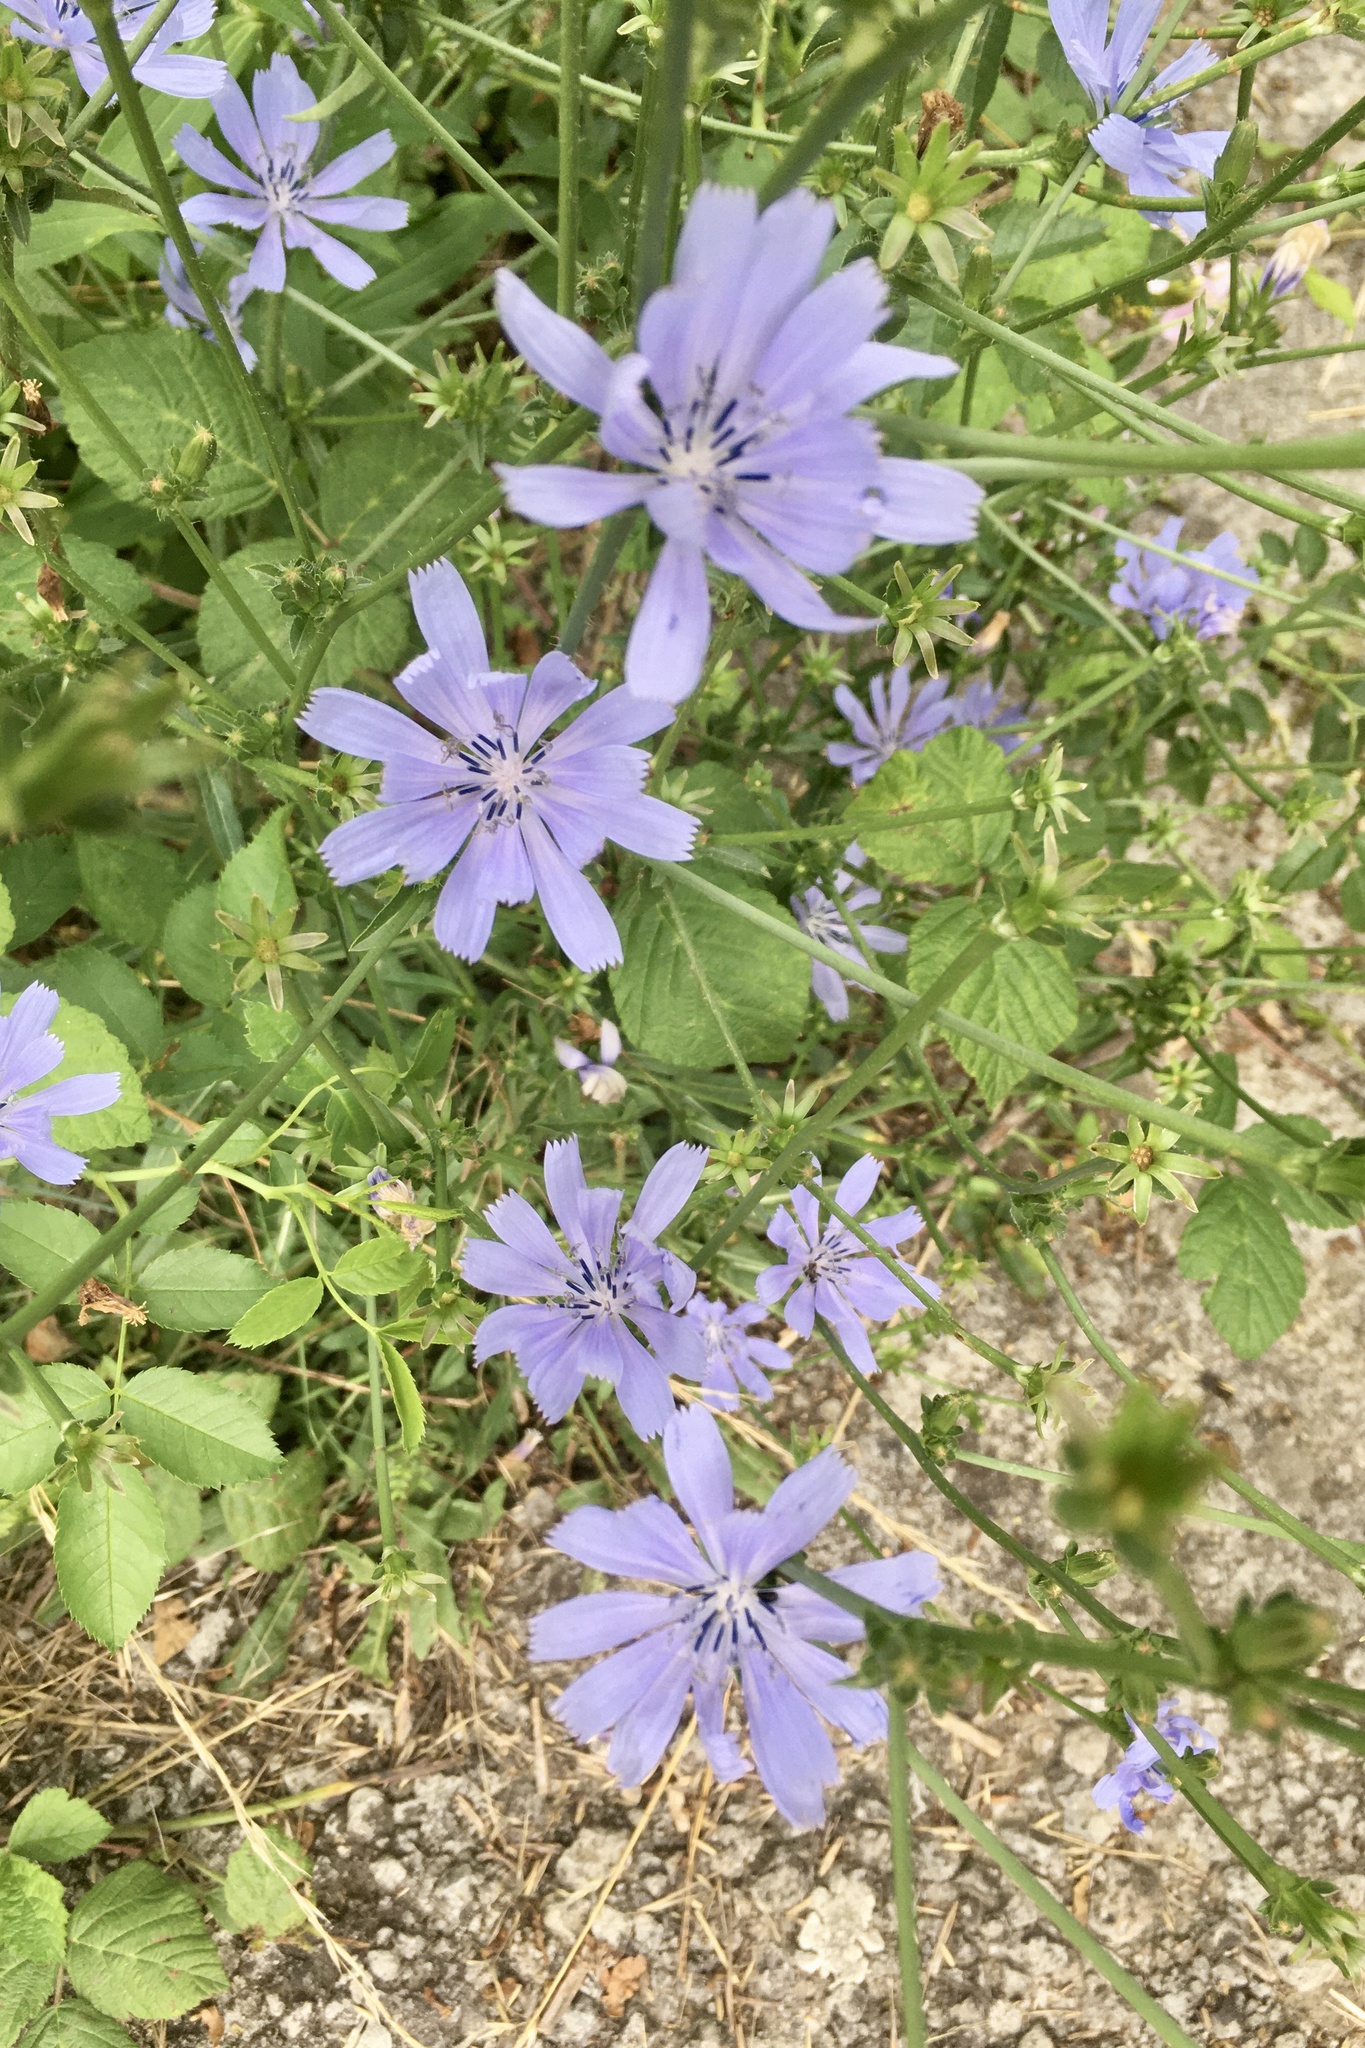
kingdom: Plantae
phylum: Tracheophyta
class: Magnoliopsida
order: Asterales
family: Asteraceae
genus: Cichorium
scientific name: Cichorium intybus
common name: Chicory
